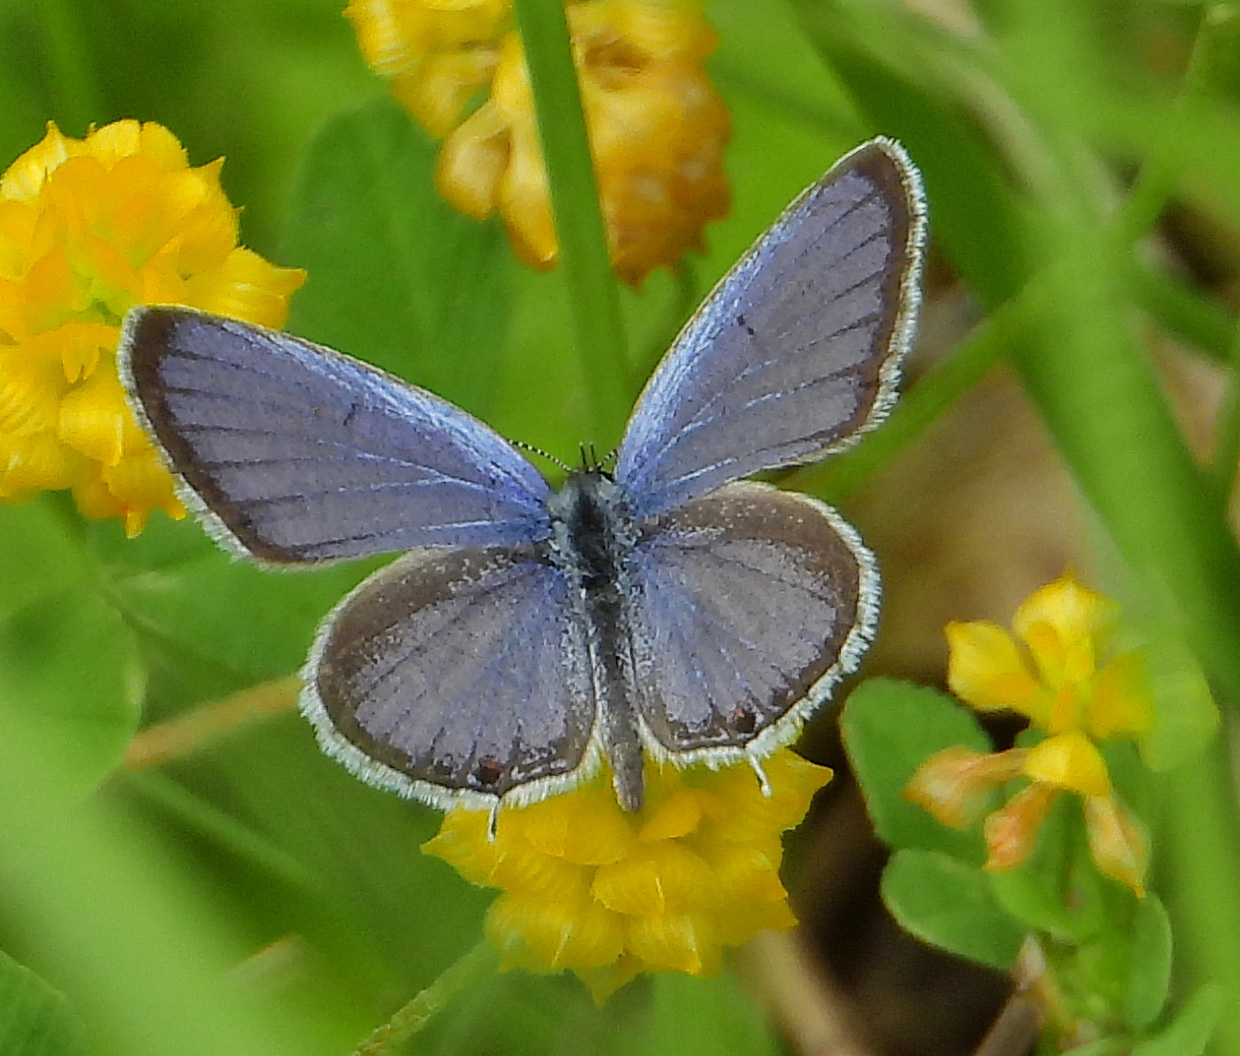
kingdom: Animalia
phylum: Arthropoda
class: Insecta
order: Lepidoptera
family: Lycaenidae
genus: Elkalyce
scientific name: Elkalyce comyntas
